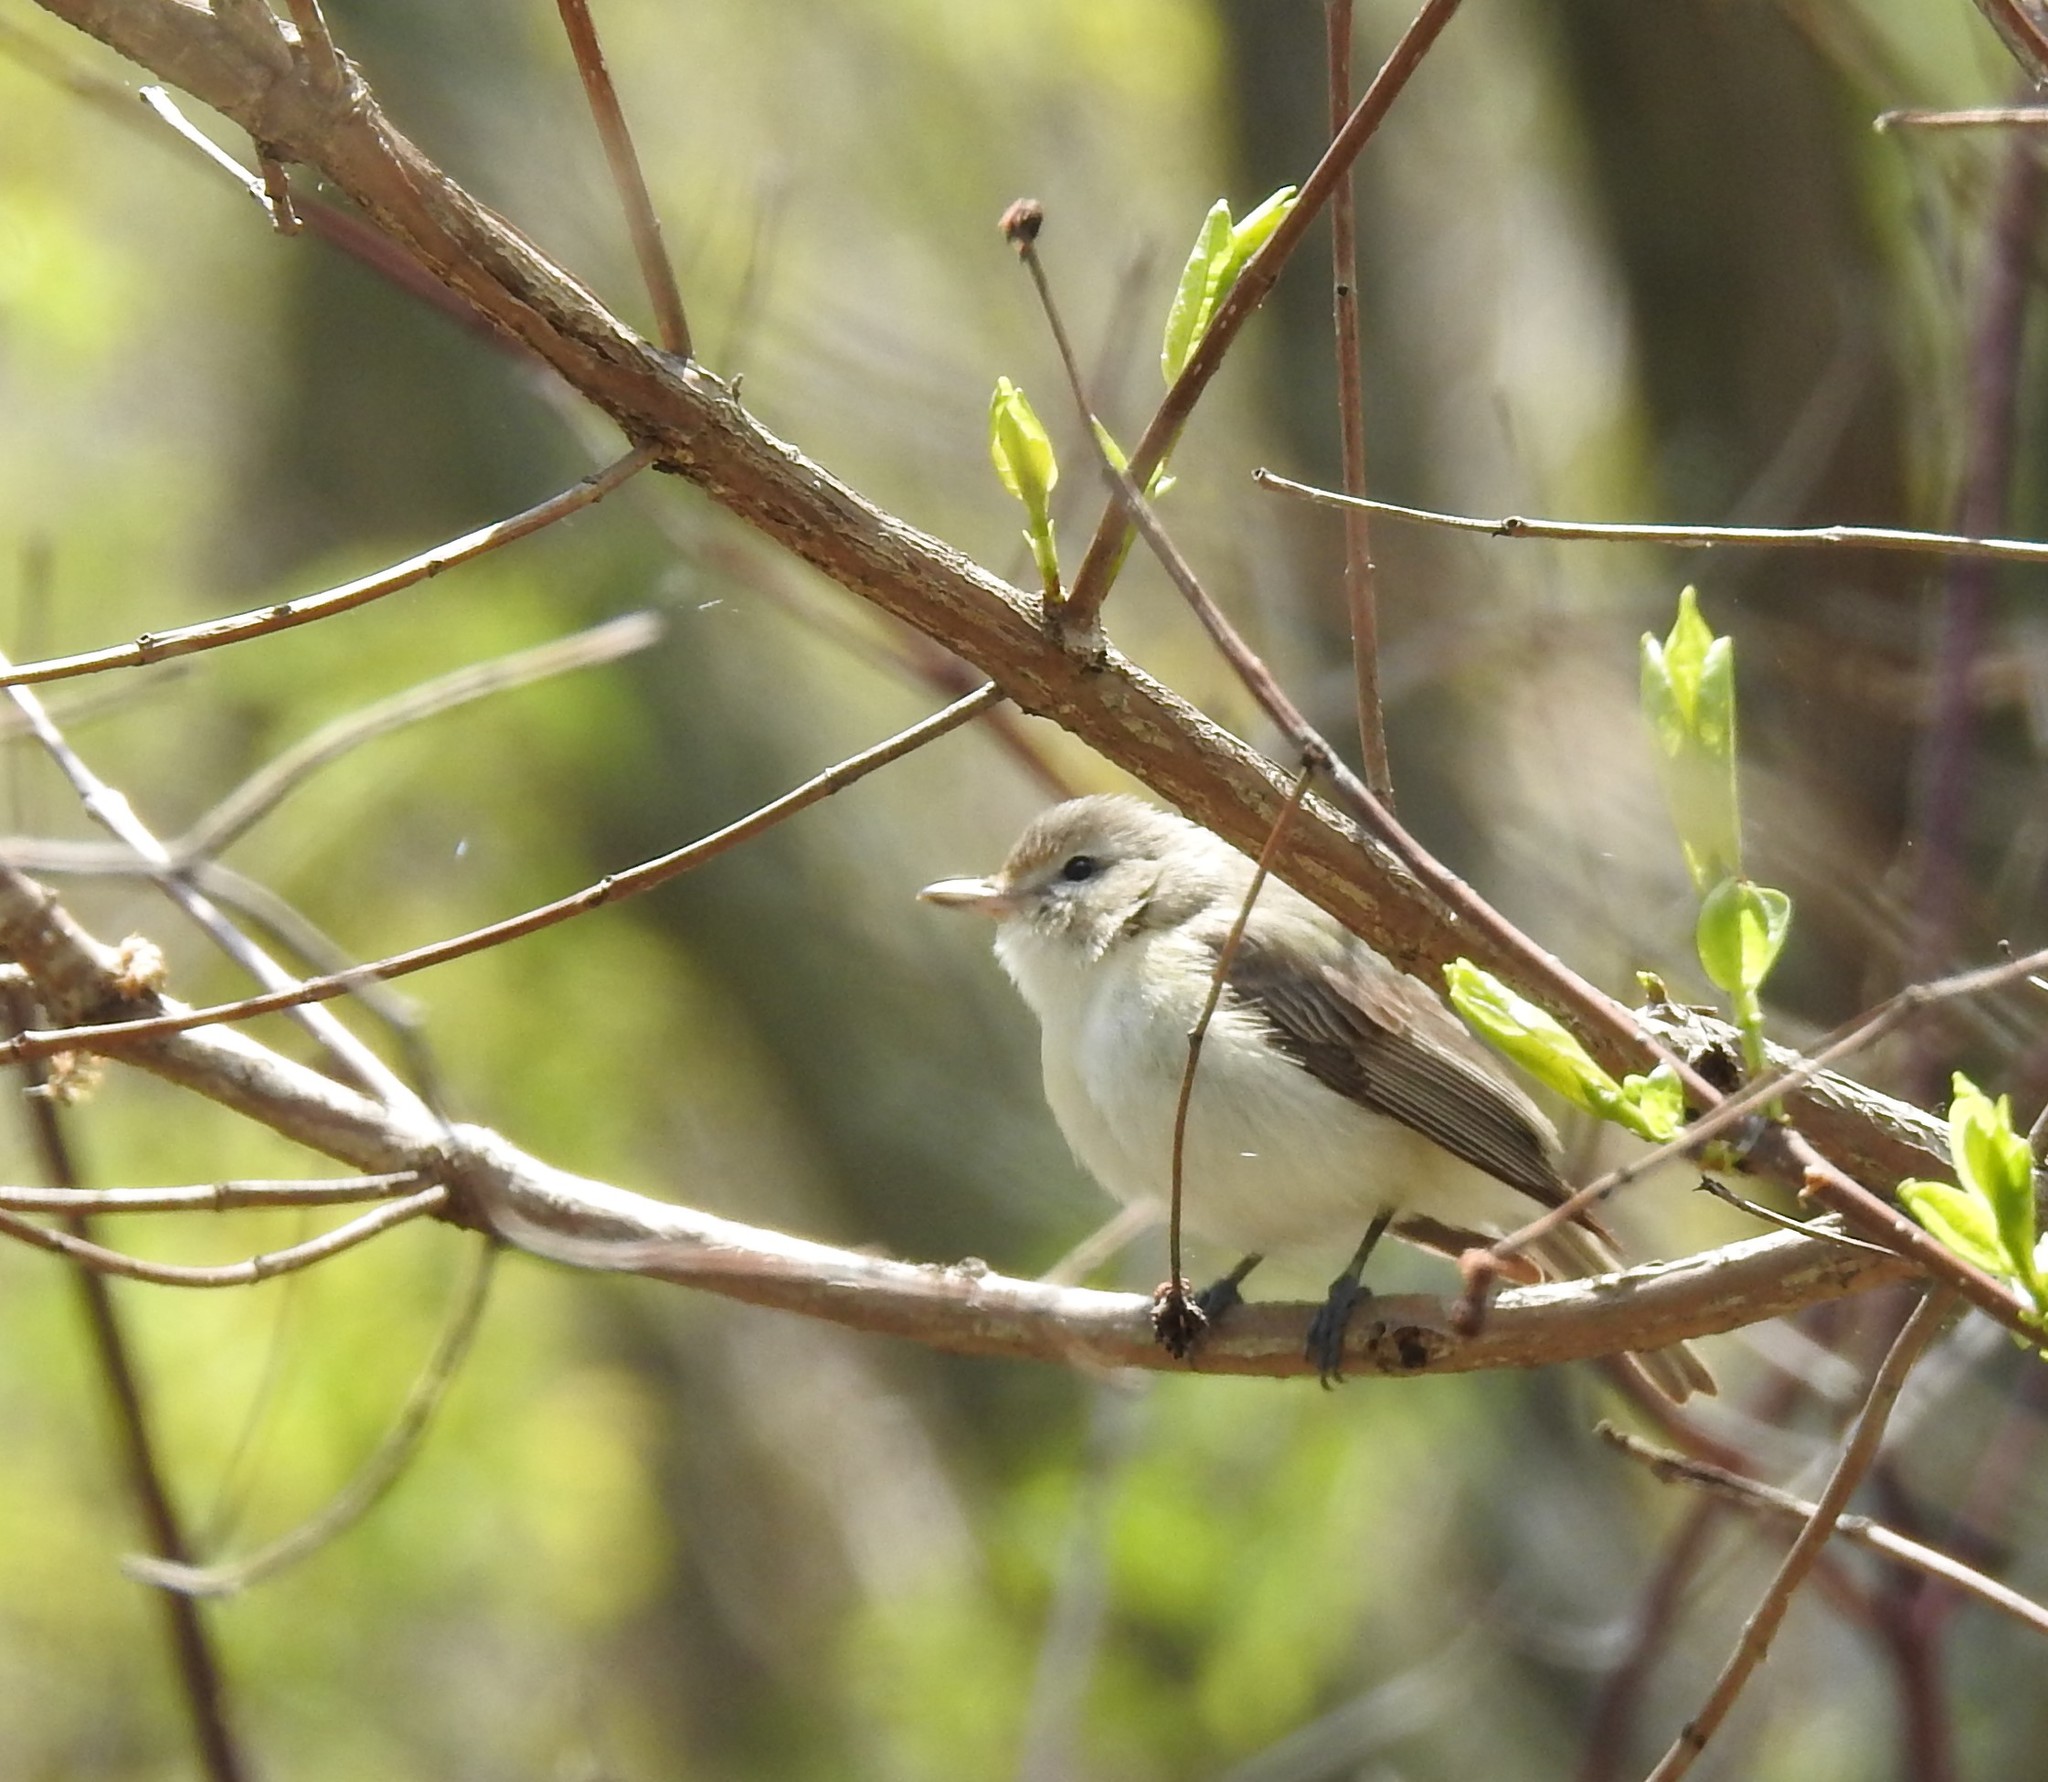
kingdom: Animalia
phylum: Chordata
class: Aves
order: Passeriformes
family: Vireonidae
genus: Vireo
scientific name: Vireo gilvus
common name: Warbling vireo
